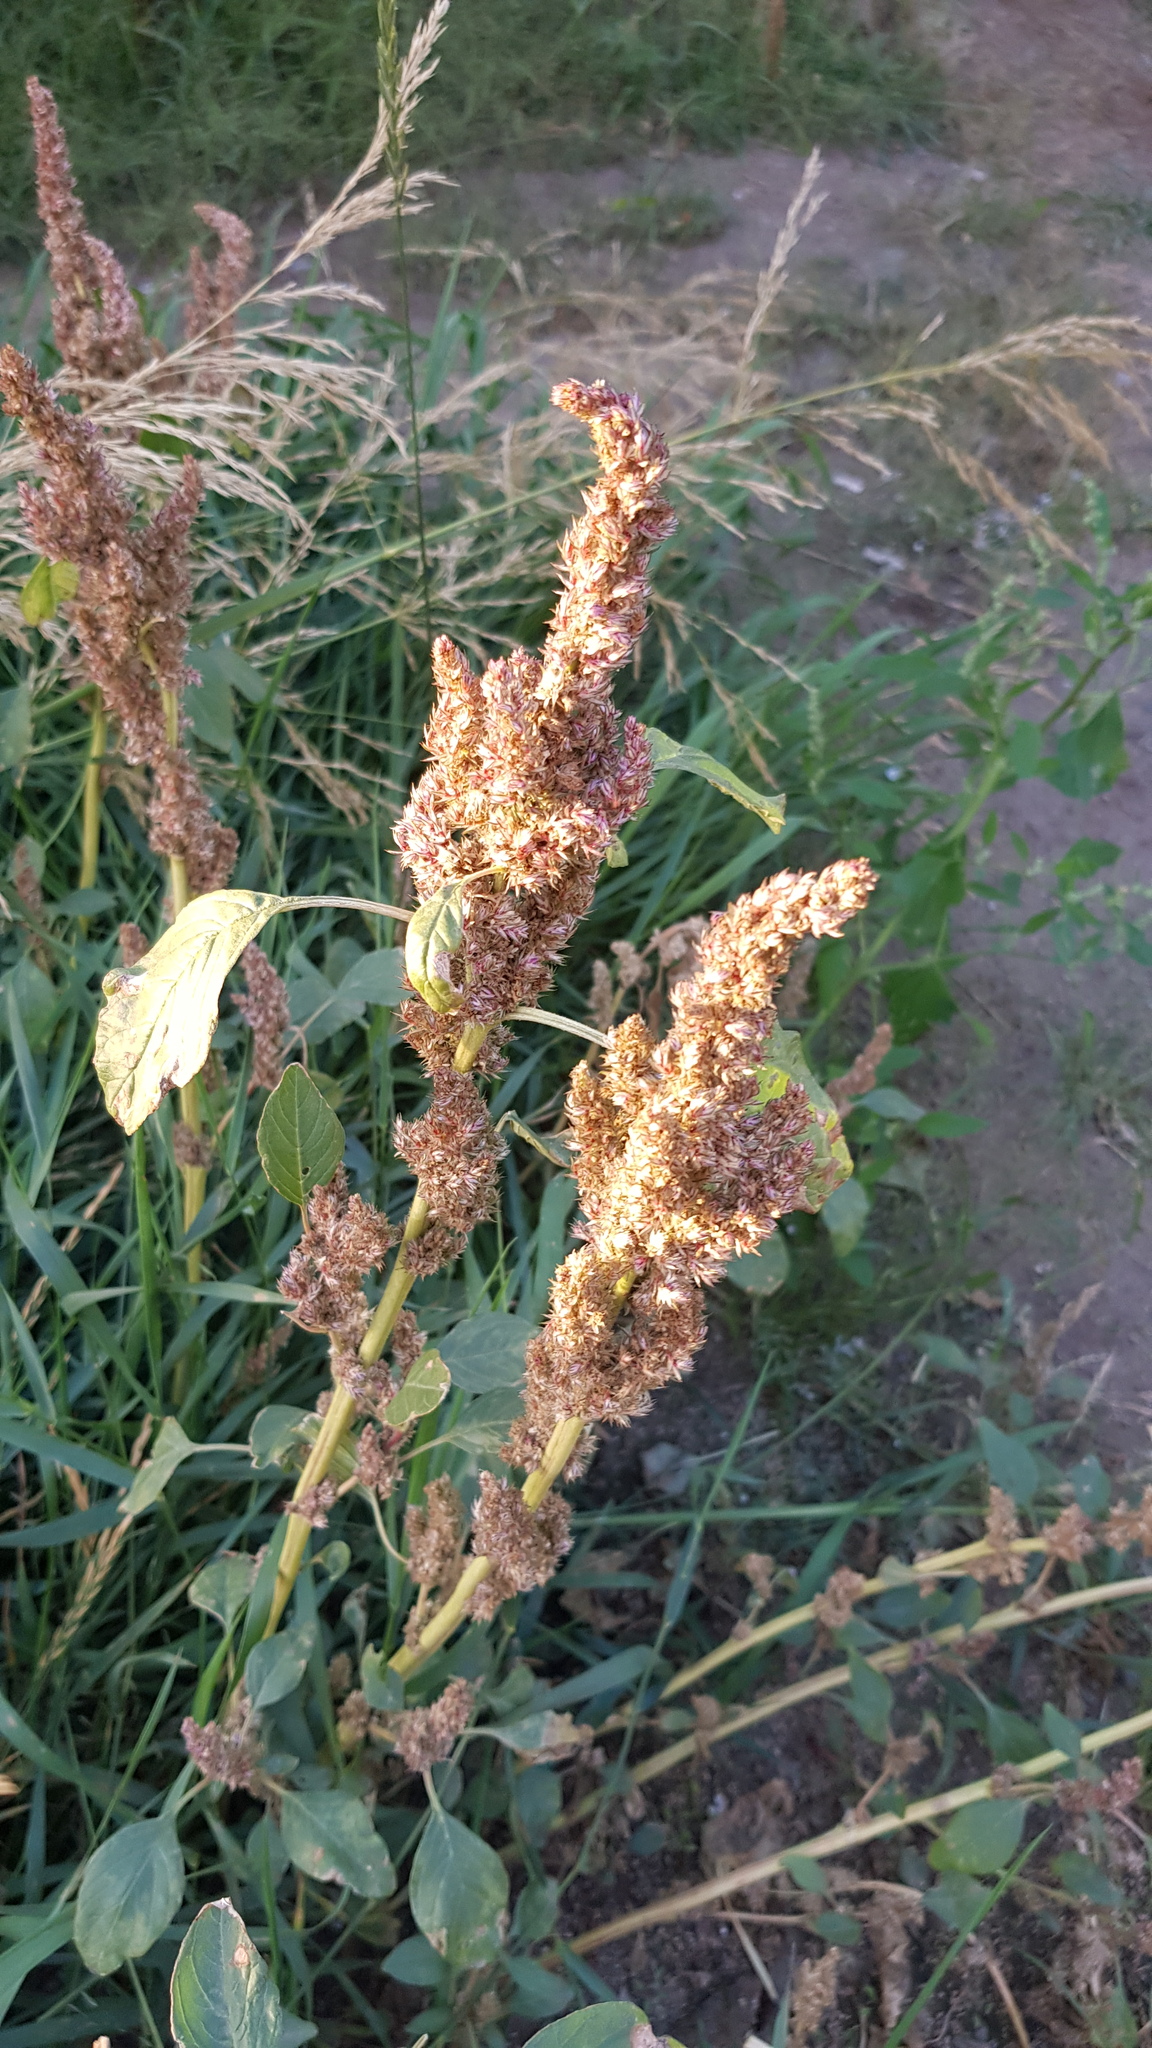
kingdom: Plantae
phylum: Tracheophyta
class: Magnoliopsida
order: Caryophyllales
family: Amaranthaceae
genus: Amaranthus
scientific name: Amaranthus retroflexus
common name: Redroot amaranth
